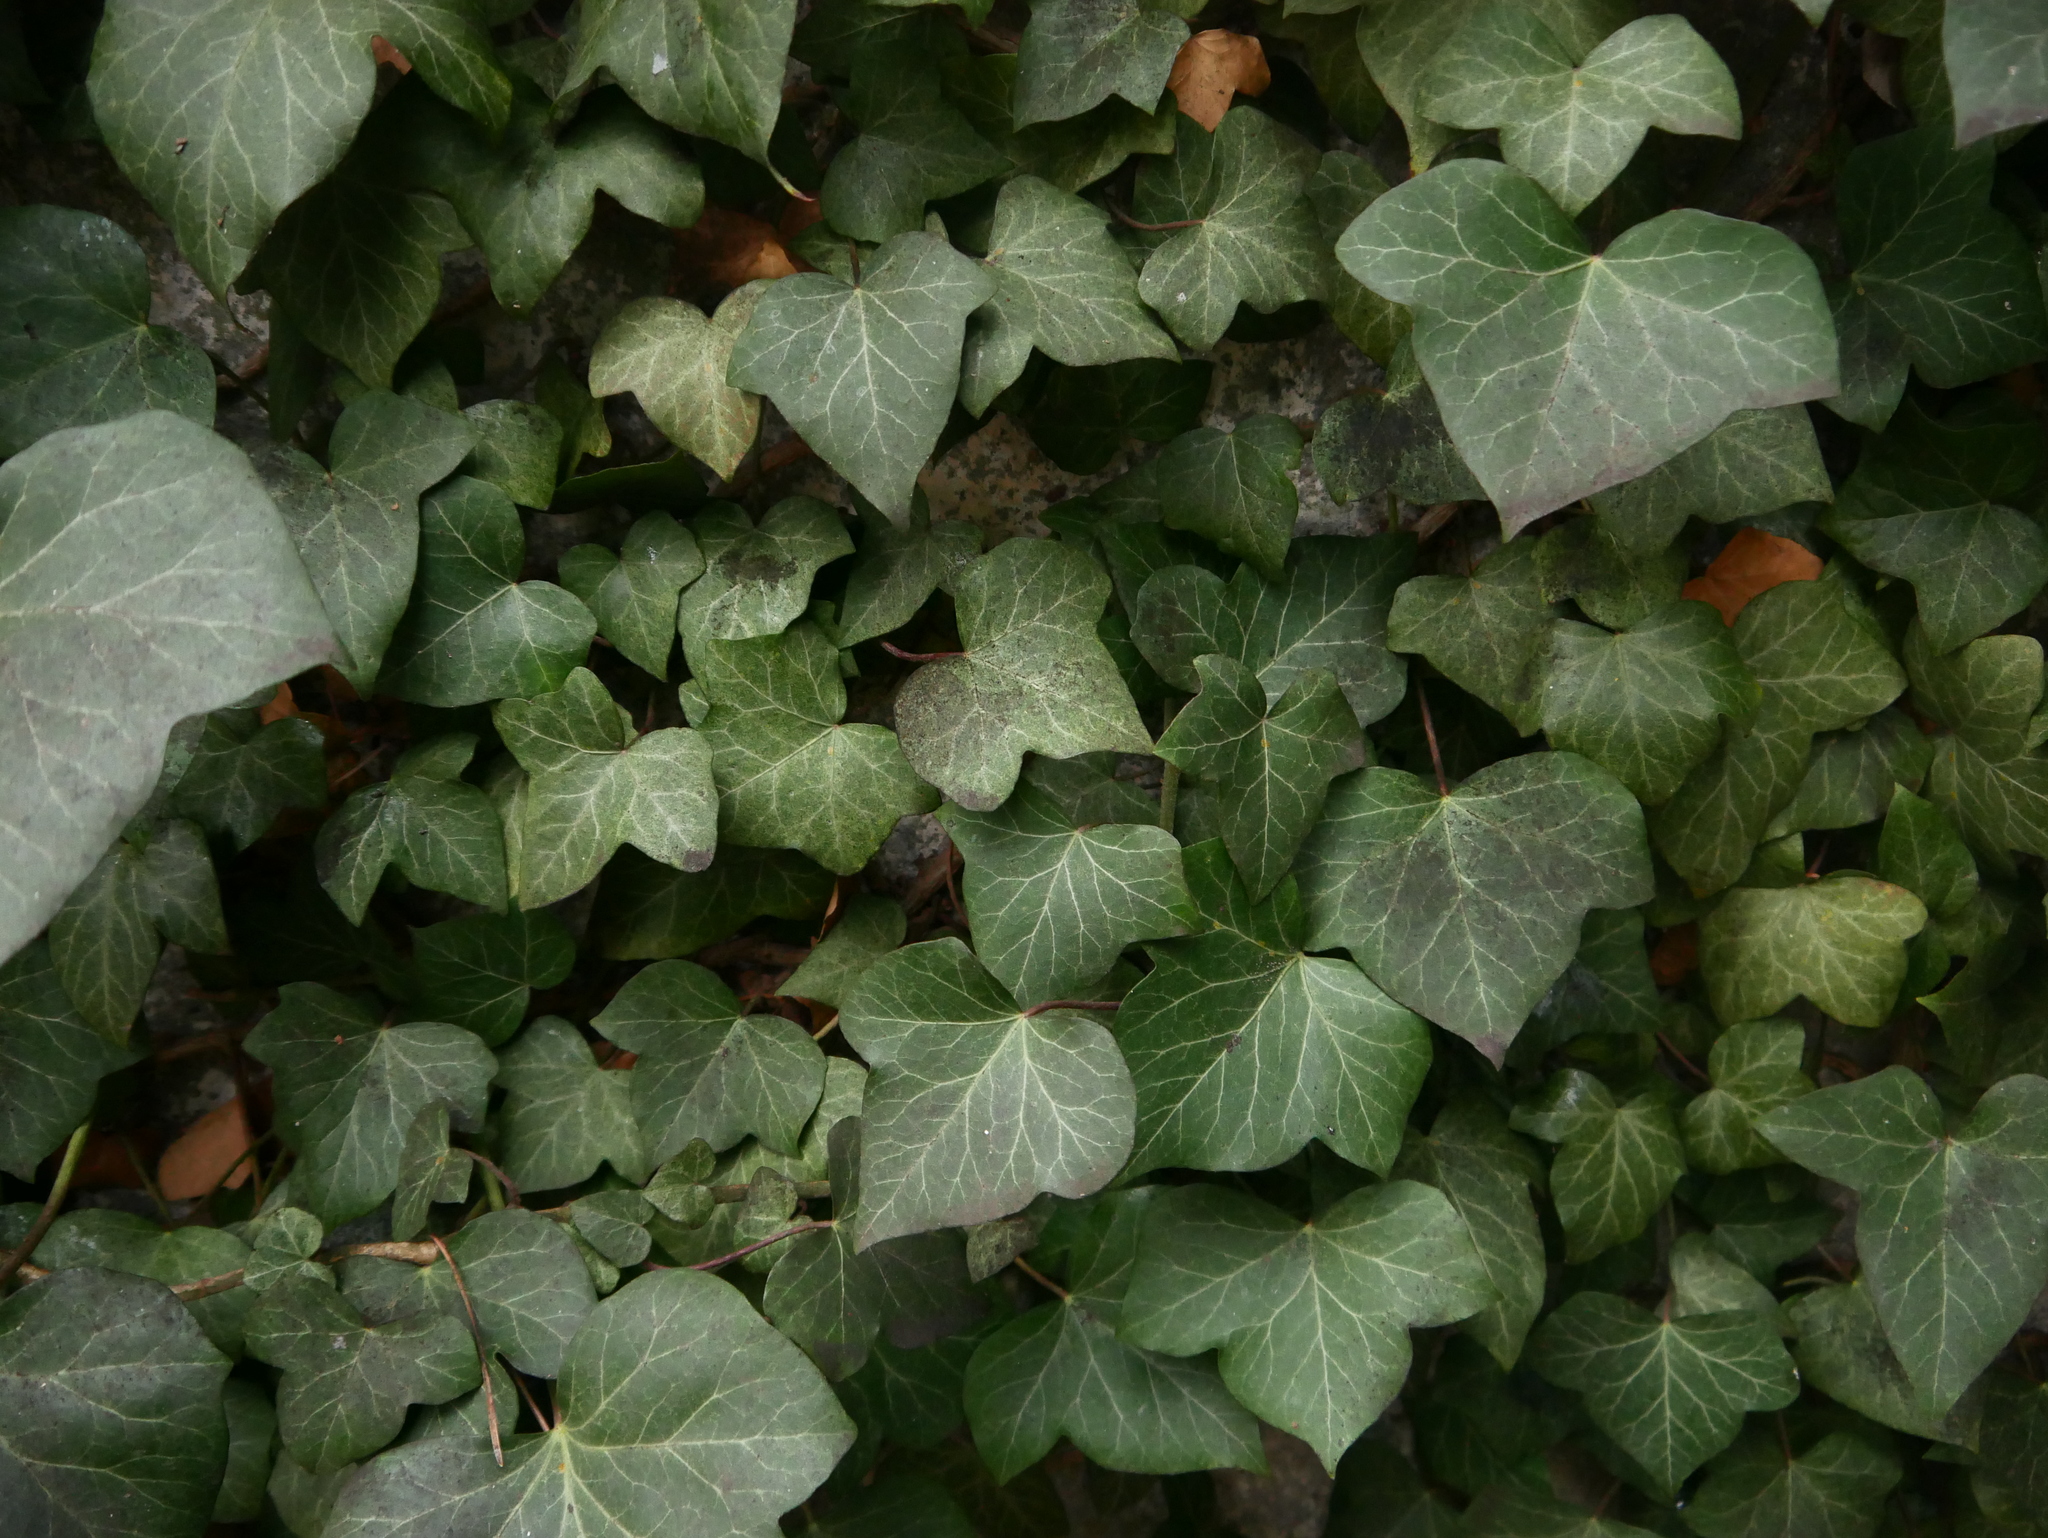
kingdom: Plantae
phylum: Tracheophyta
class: Magnoliopsida
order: Apiales
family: Araliaceae
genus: Hedera
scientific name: Hedera helix
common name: Ivy
